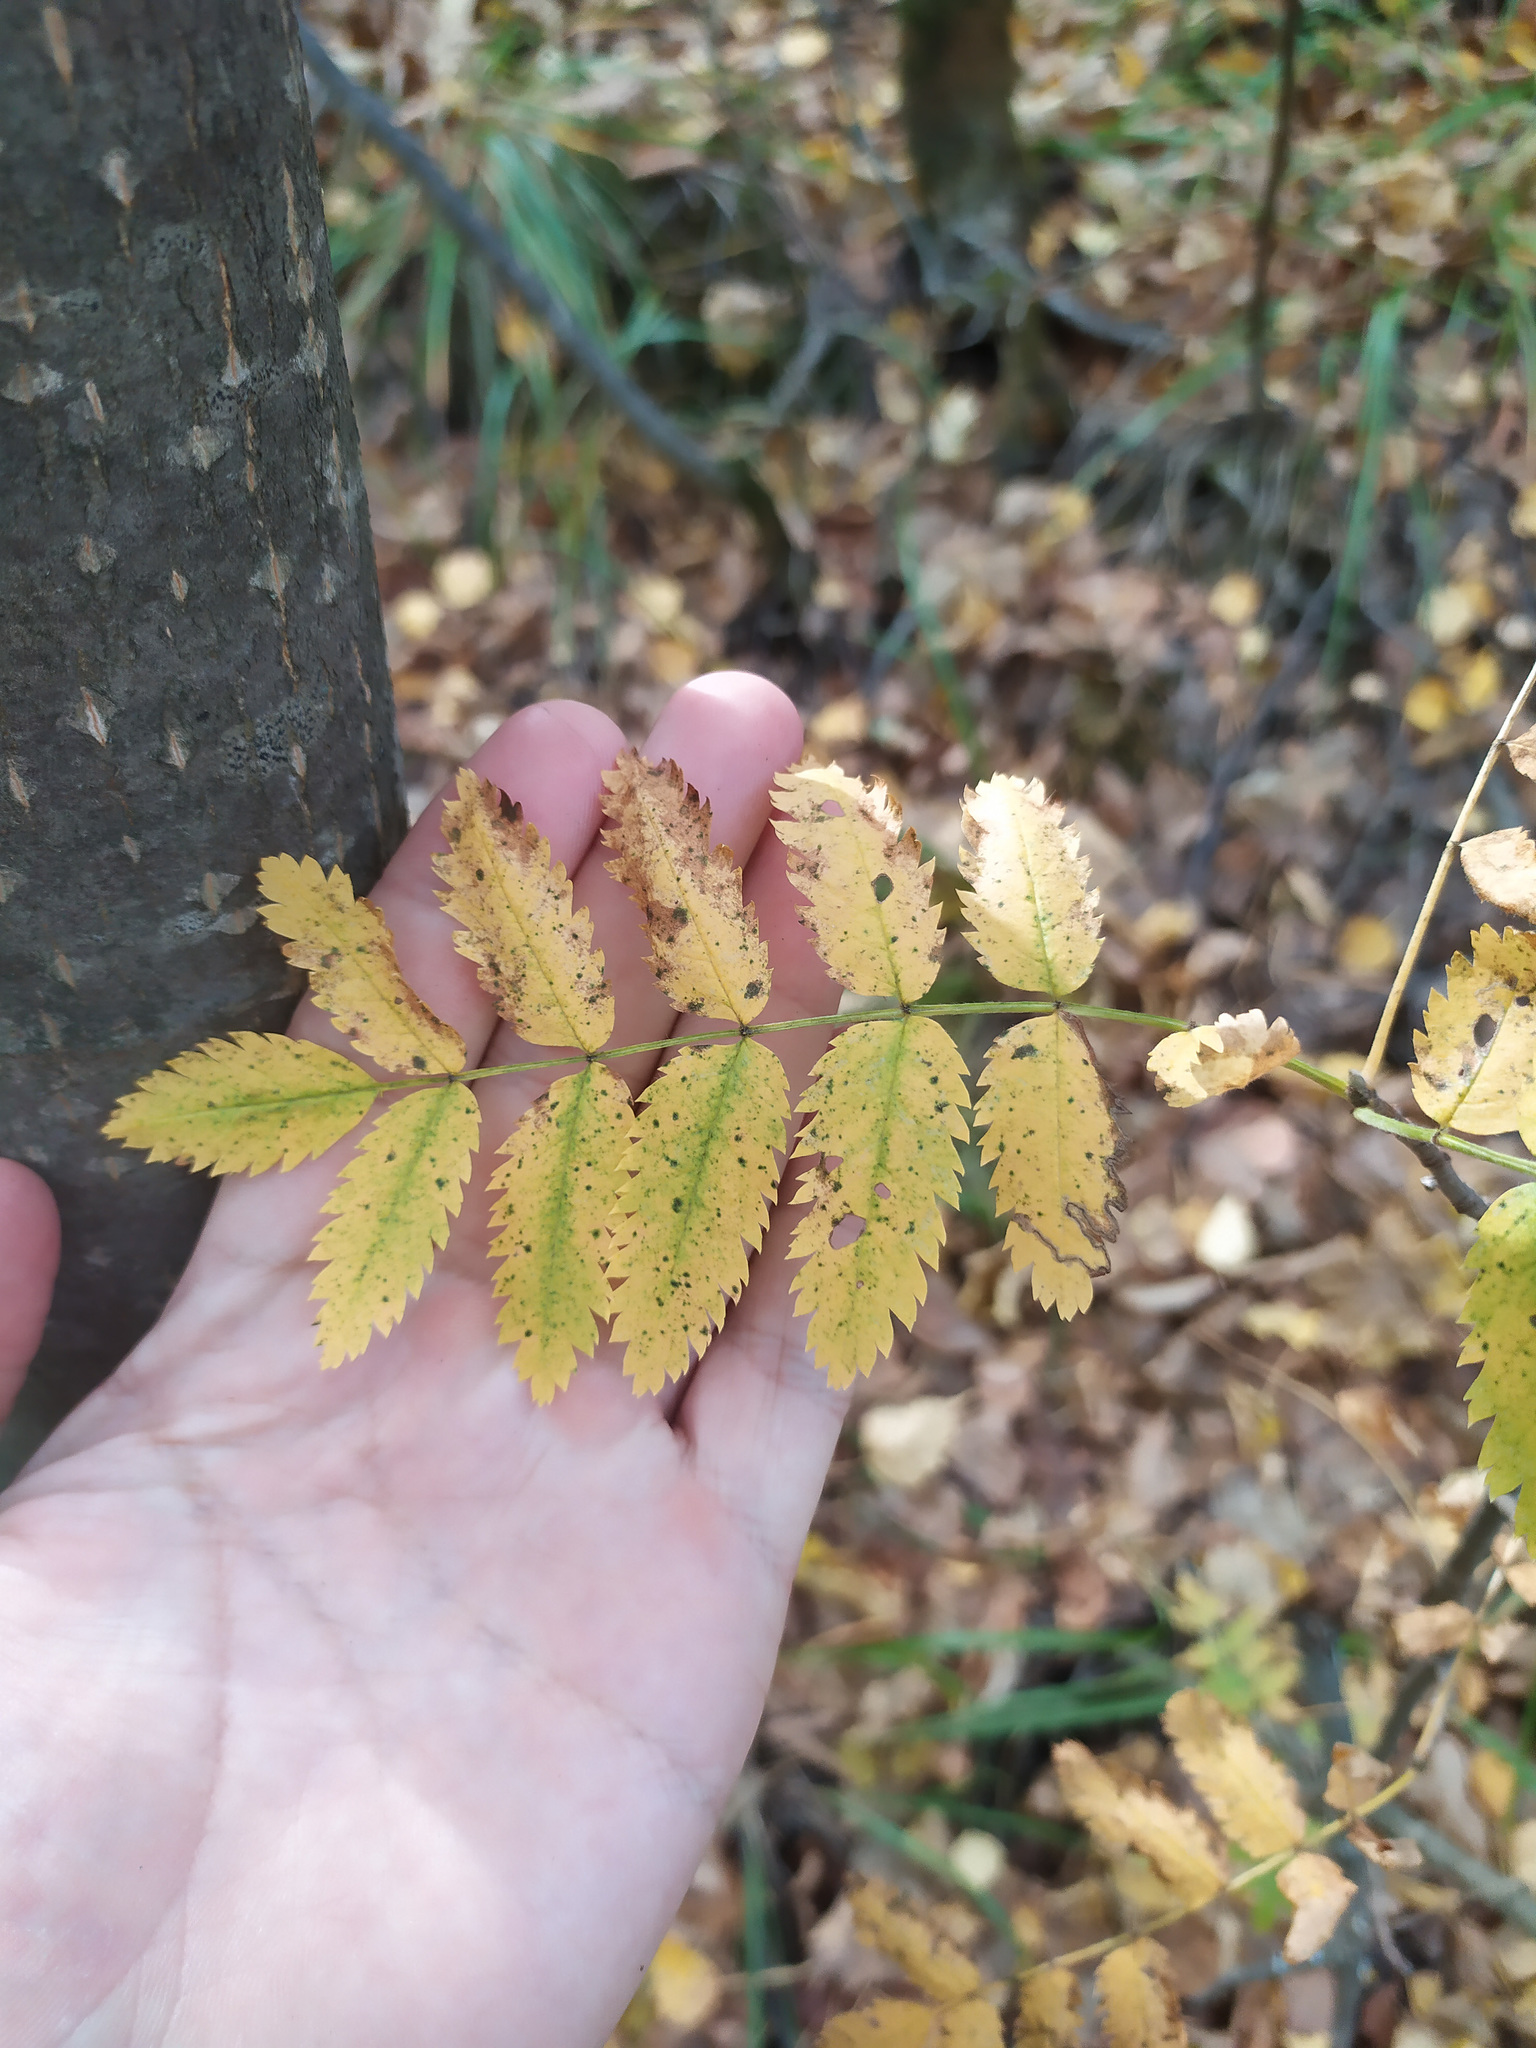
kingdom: Plantae
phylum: Tracheophyta
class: Magnoliopsida
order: Rosales
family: Rosaceae
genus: Sorbus
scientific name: Sorbus aucuparia
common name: Rowan
